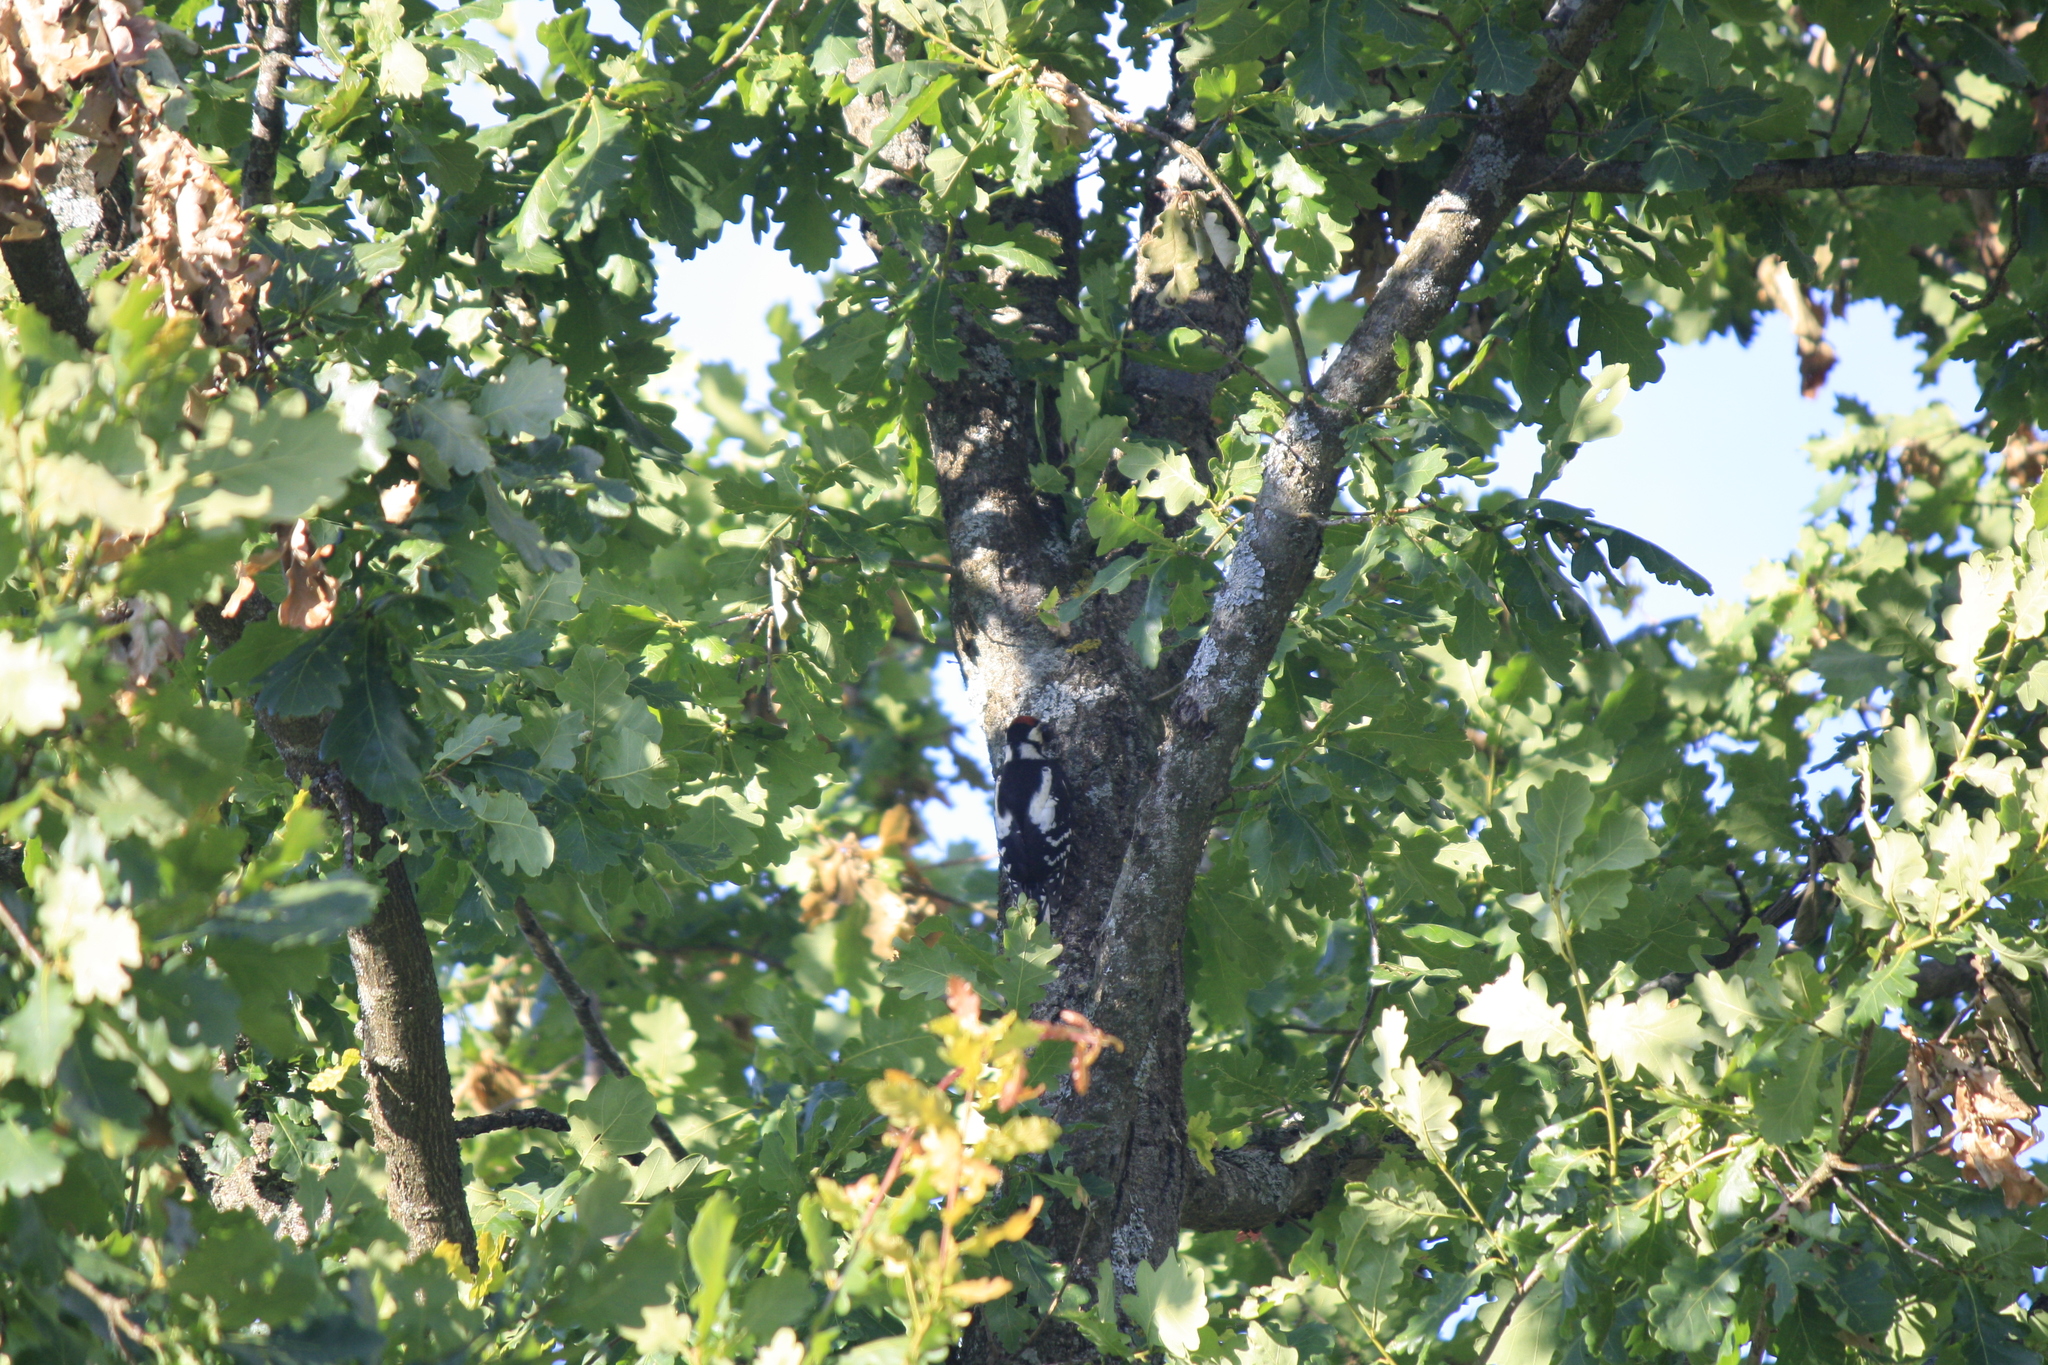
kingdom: Animalia
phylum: Chordata
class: Aves
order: Piciformes
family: Picidae
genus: Dendrocopos
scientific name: Dendrocopos major
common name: Great spotted woodpecker
